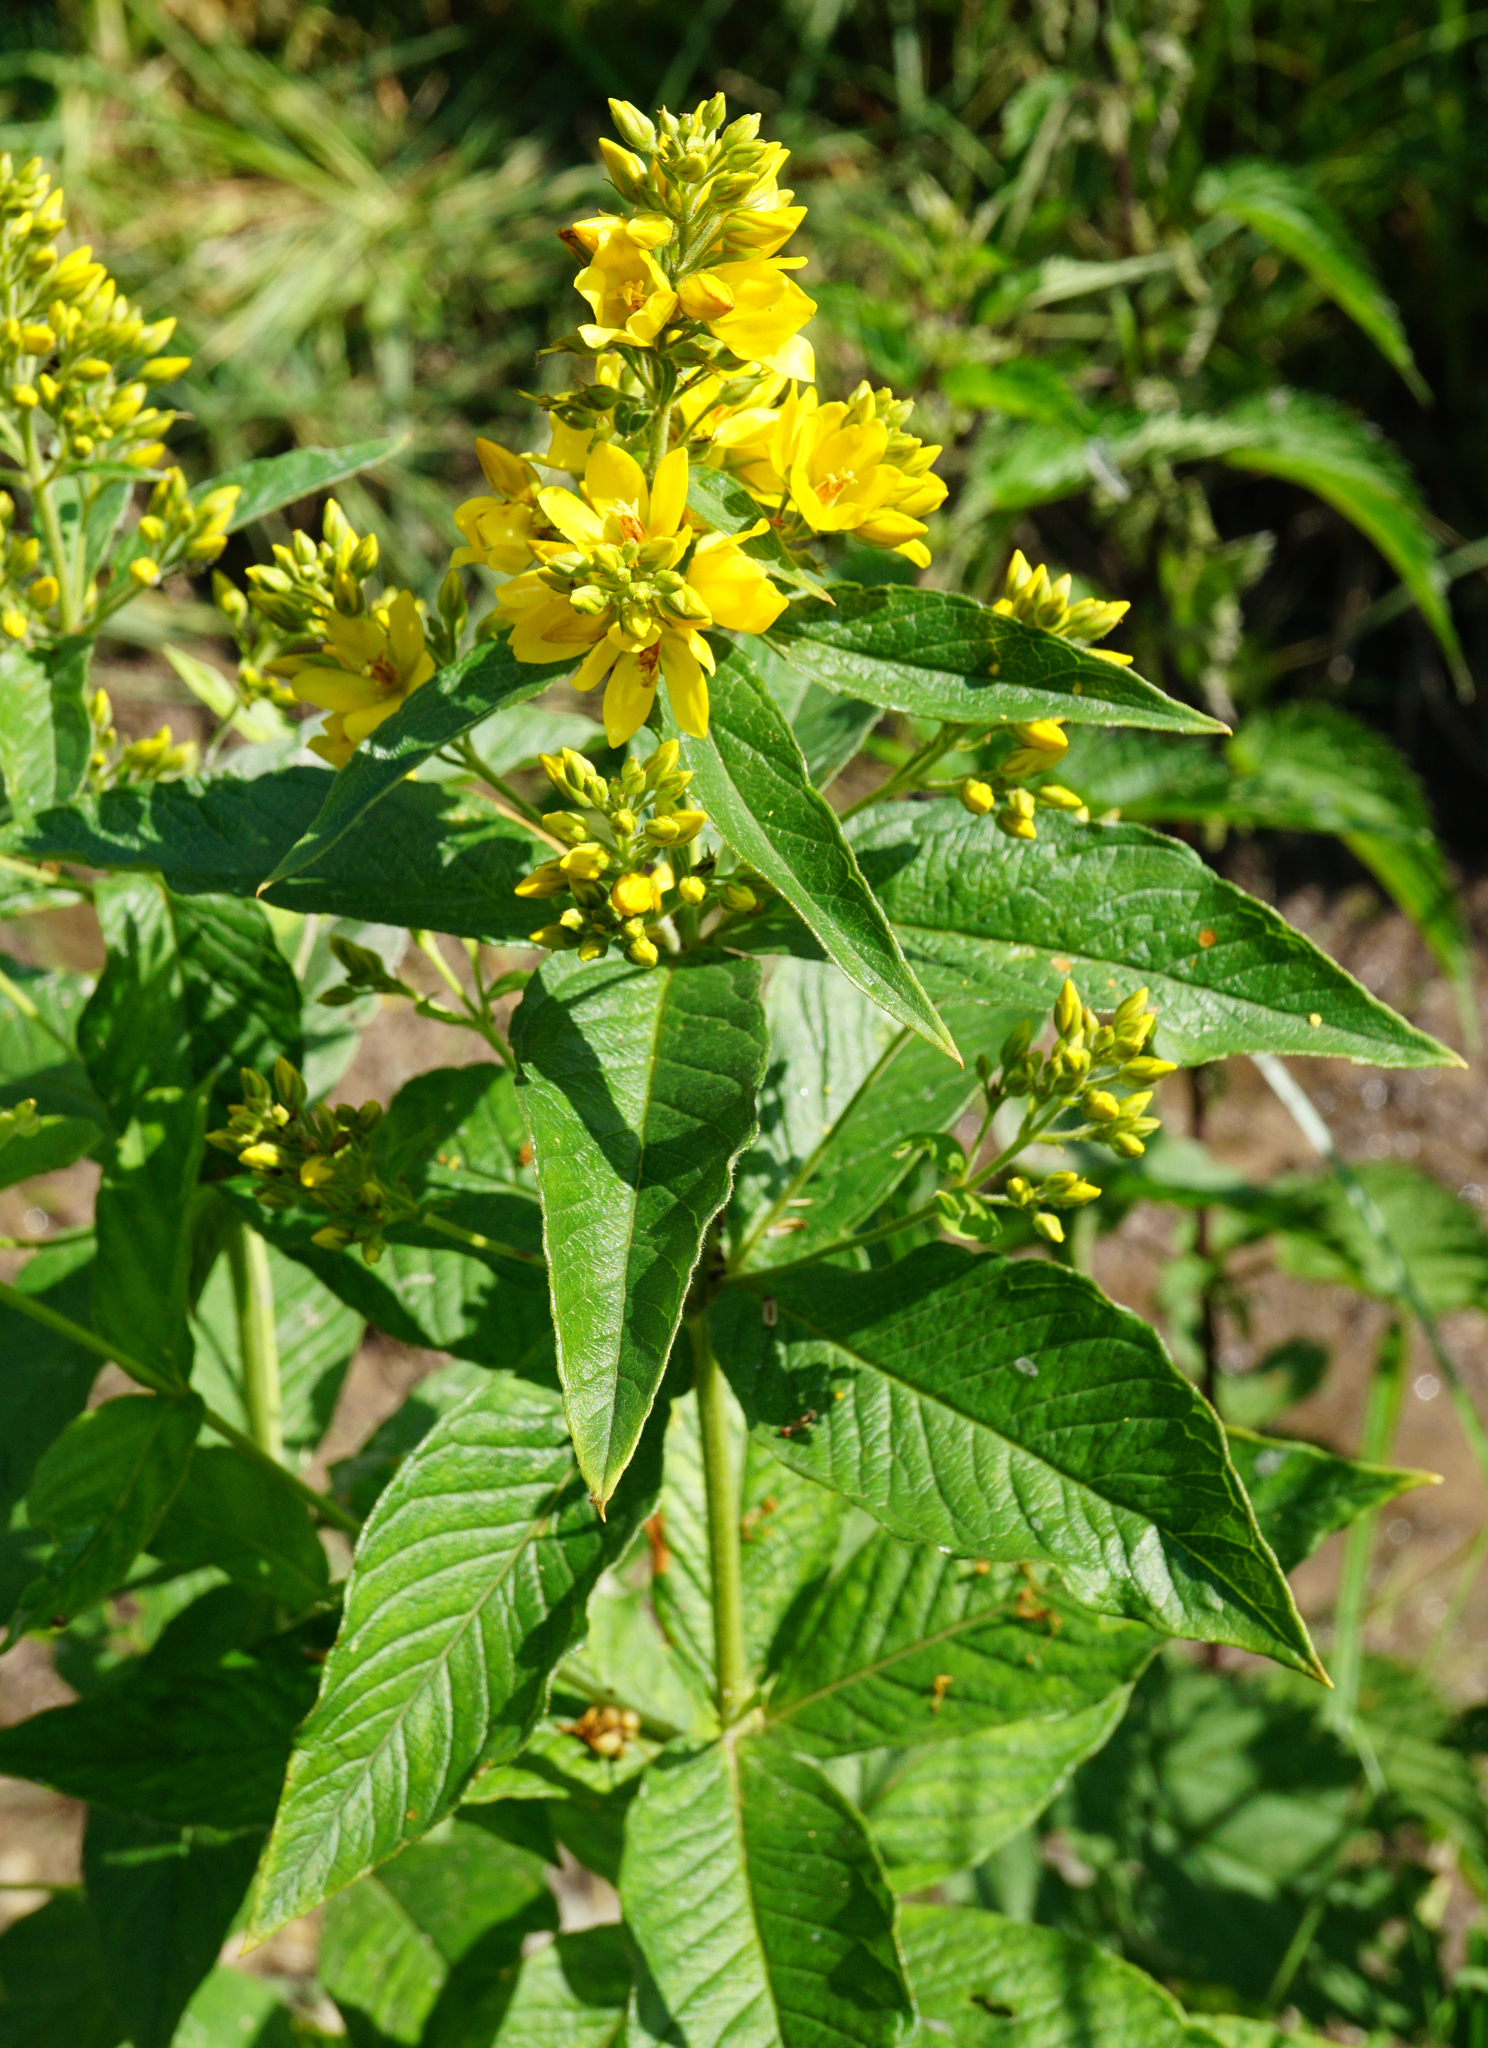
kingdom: Plantae
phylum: Tracheophyta
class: Magnoliopsida
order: Ericales
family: Primulaceae
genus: Lysimachia
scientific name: Lysimachia vulgaris
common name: Yellow loosestrife
